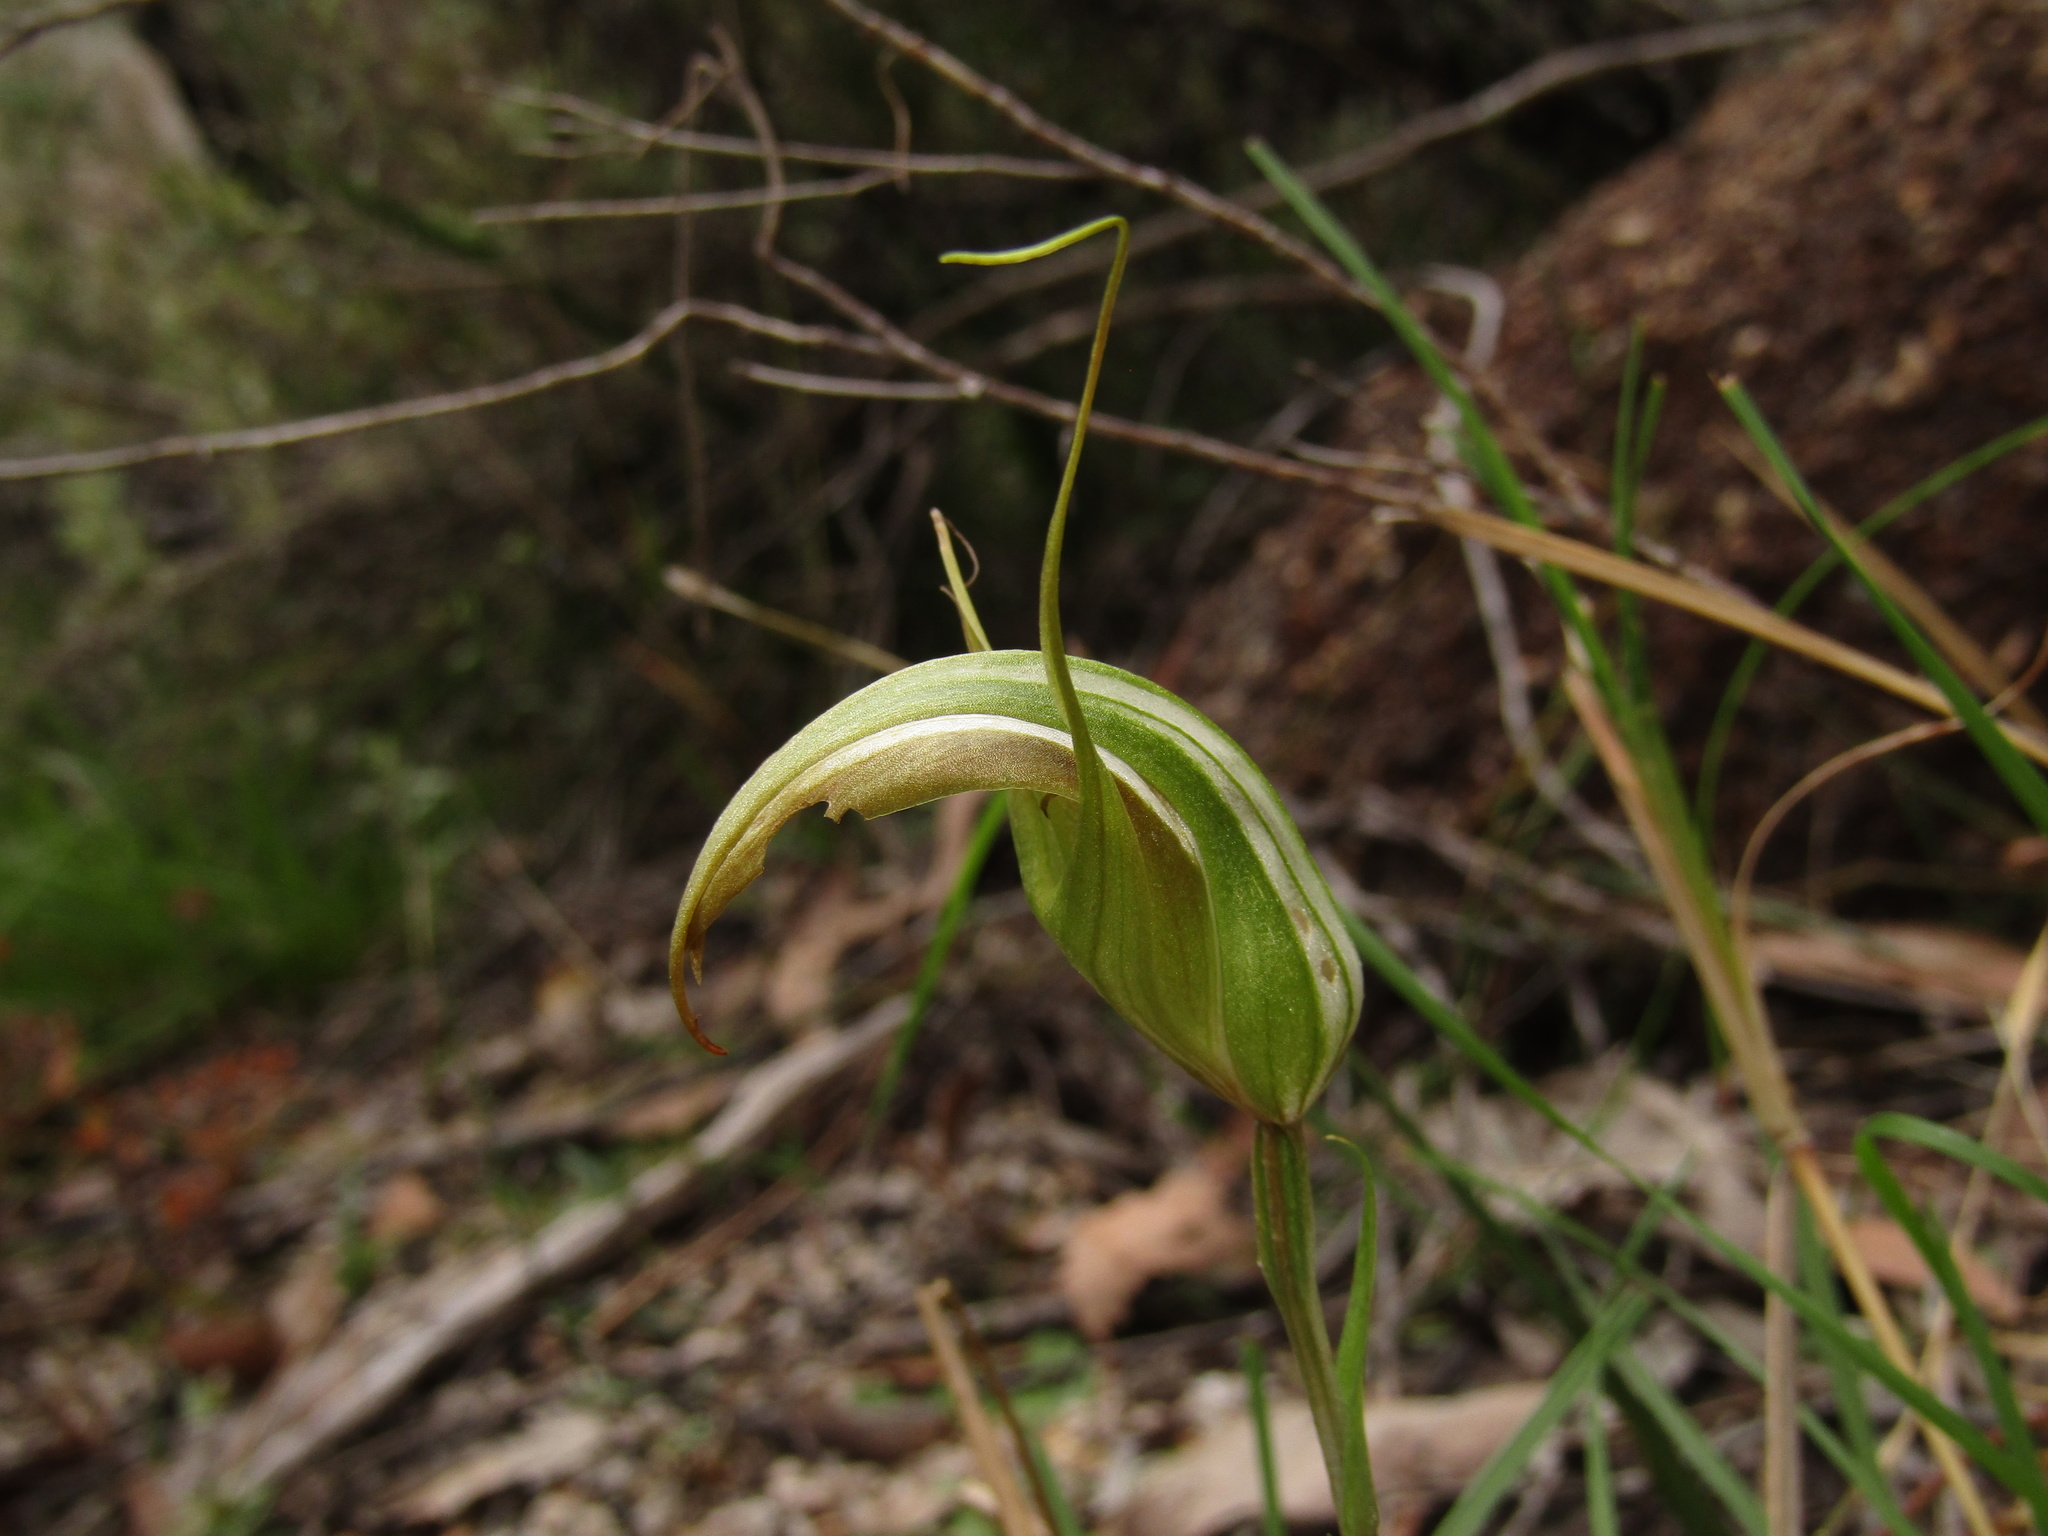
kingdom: Plantae
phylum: Tracheophyta
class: Liliopsida
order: Asparagales
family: Orchidaceae
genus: Pterostylis
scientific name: Pterostylis ampliata
